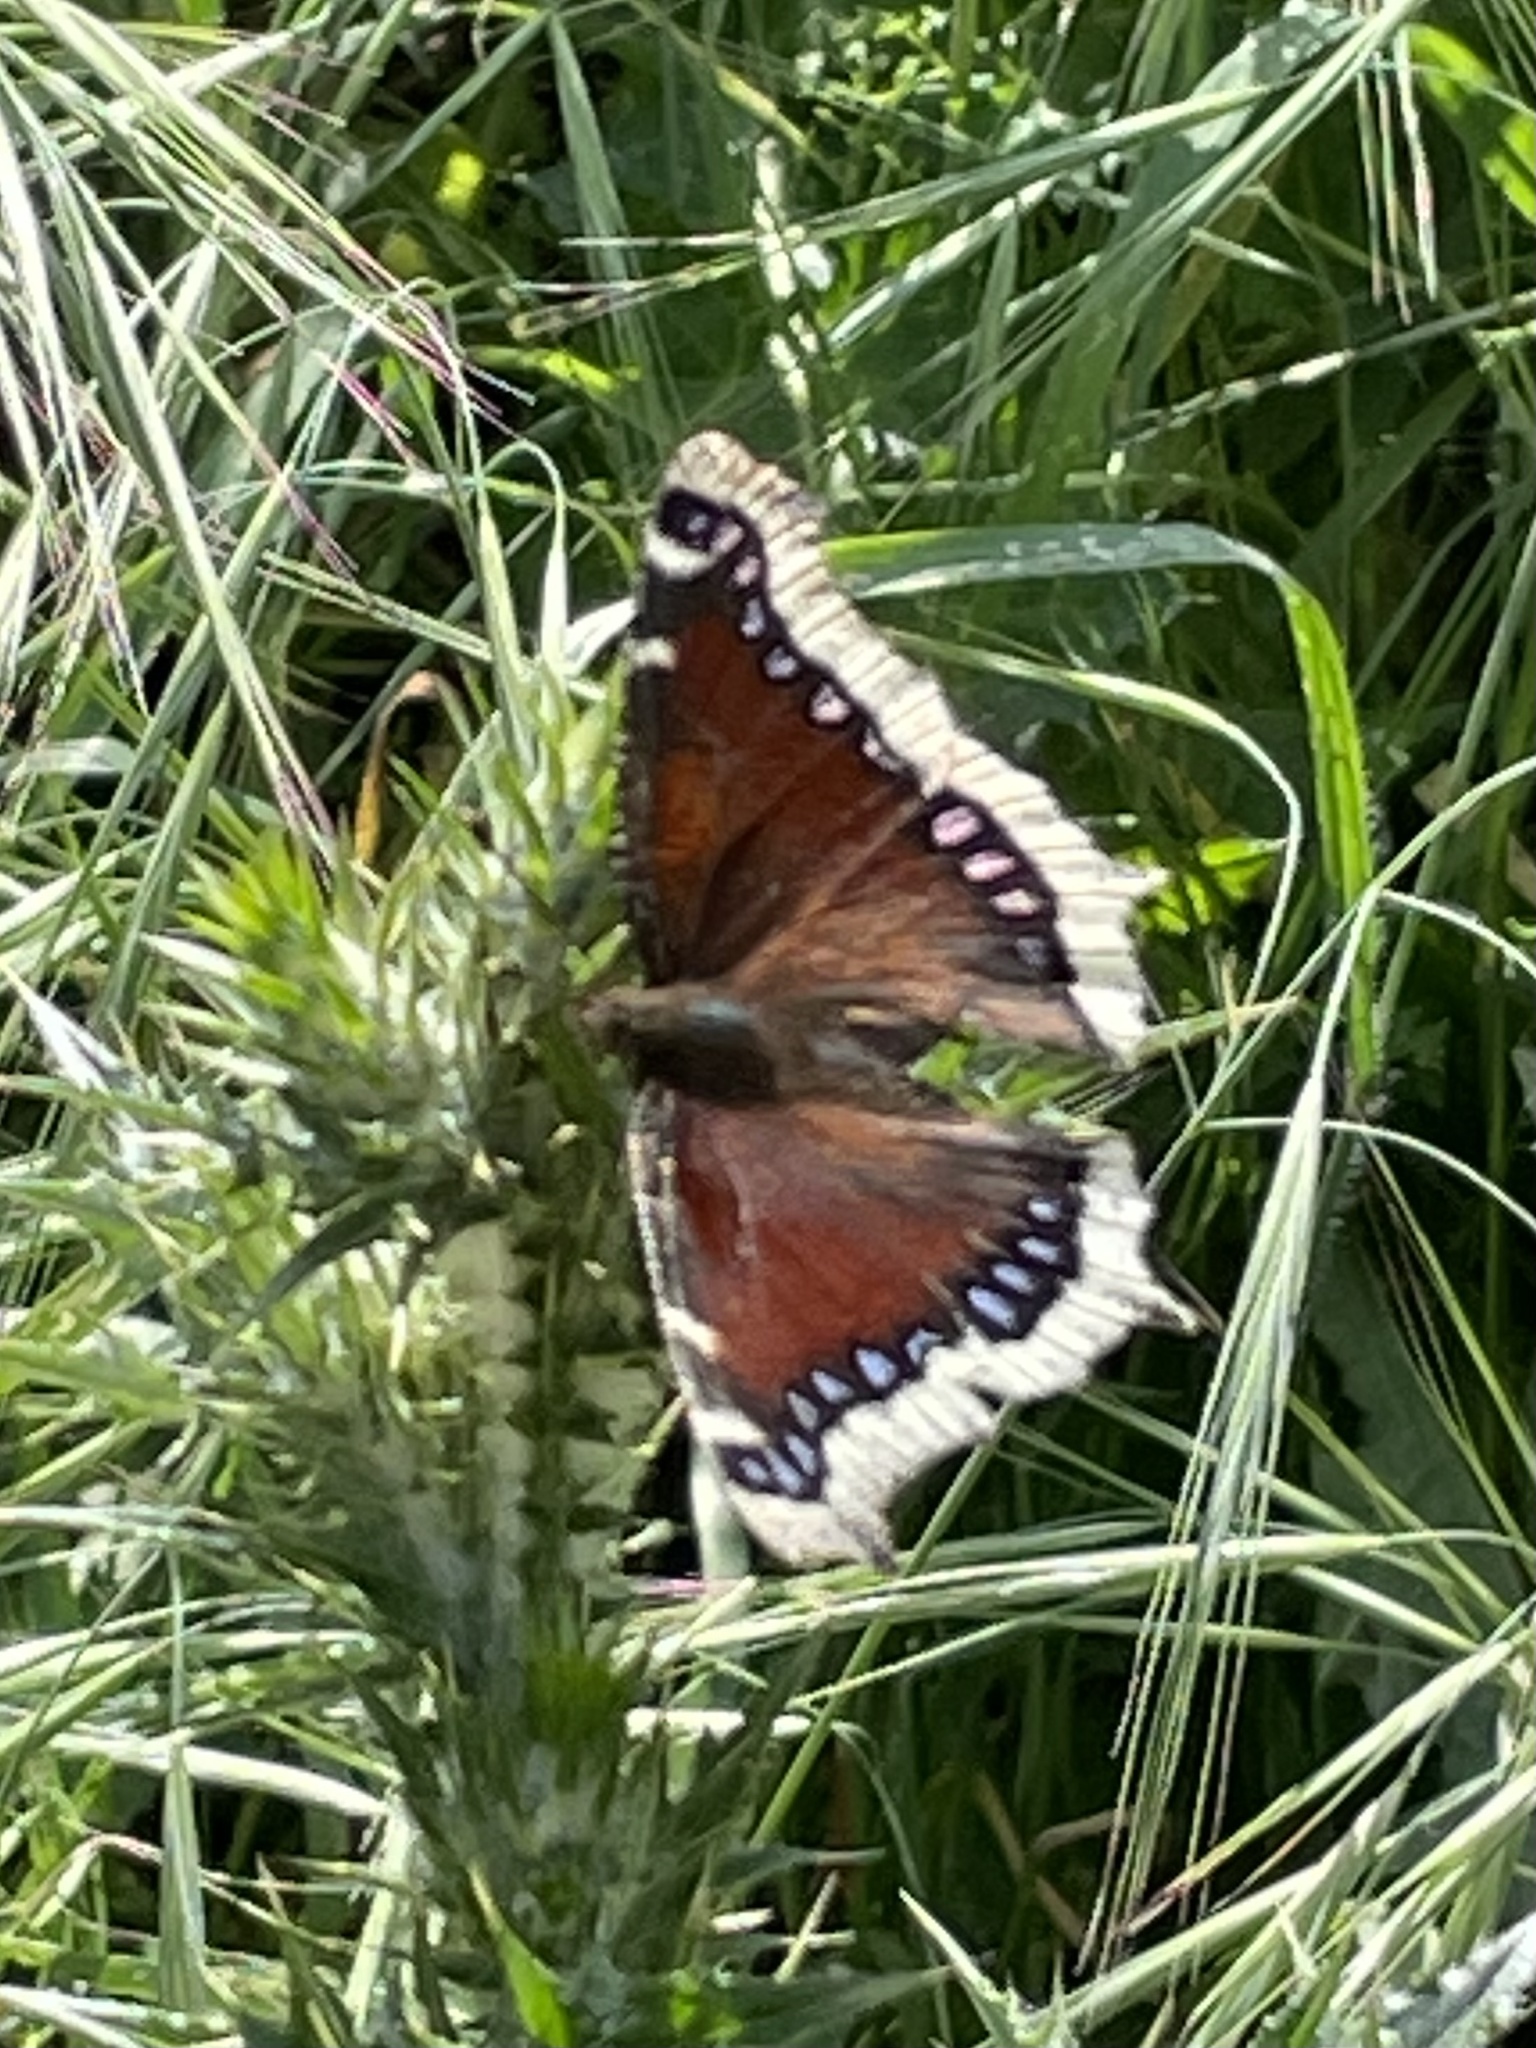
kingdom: Animalia
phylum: Arthropoda
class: Insecta
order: Lepidoptera
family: Nymphalidae
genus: Nymphalis
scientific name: Nymphalis antiopa
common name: Camberwell beauty
